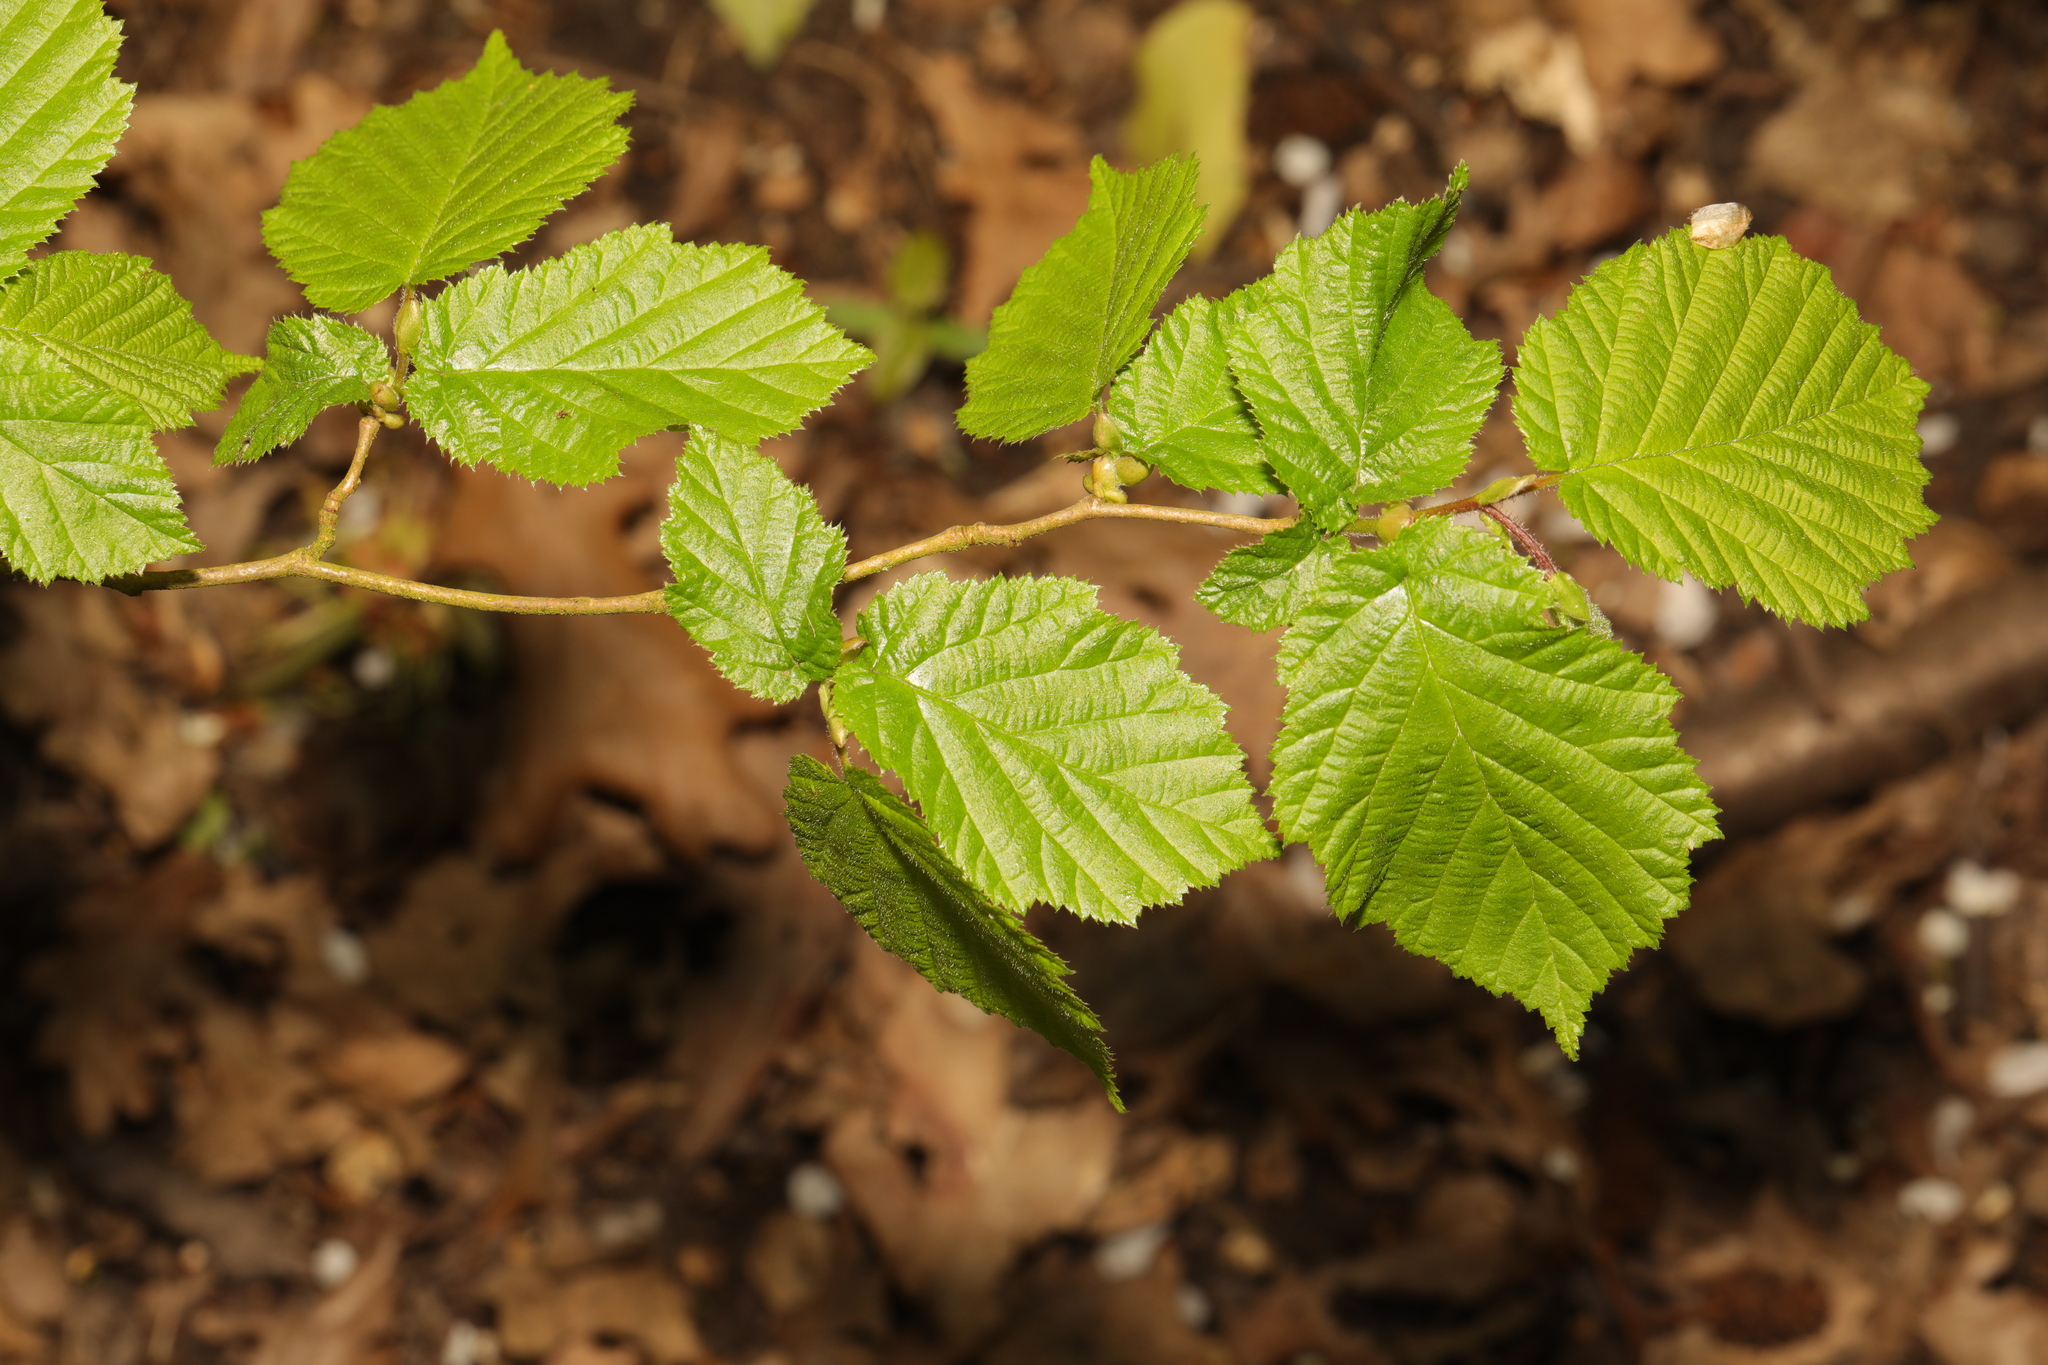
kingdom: Plantae
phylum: Tracheophyta
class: Magnoliopsida
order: Fagales
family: Betulaceae
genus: Corylus
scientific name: Corylus avellana
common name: European hazel
